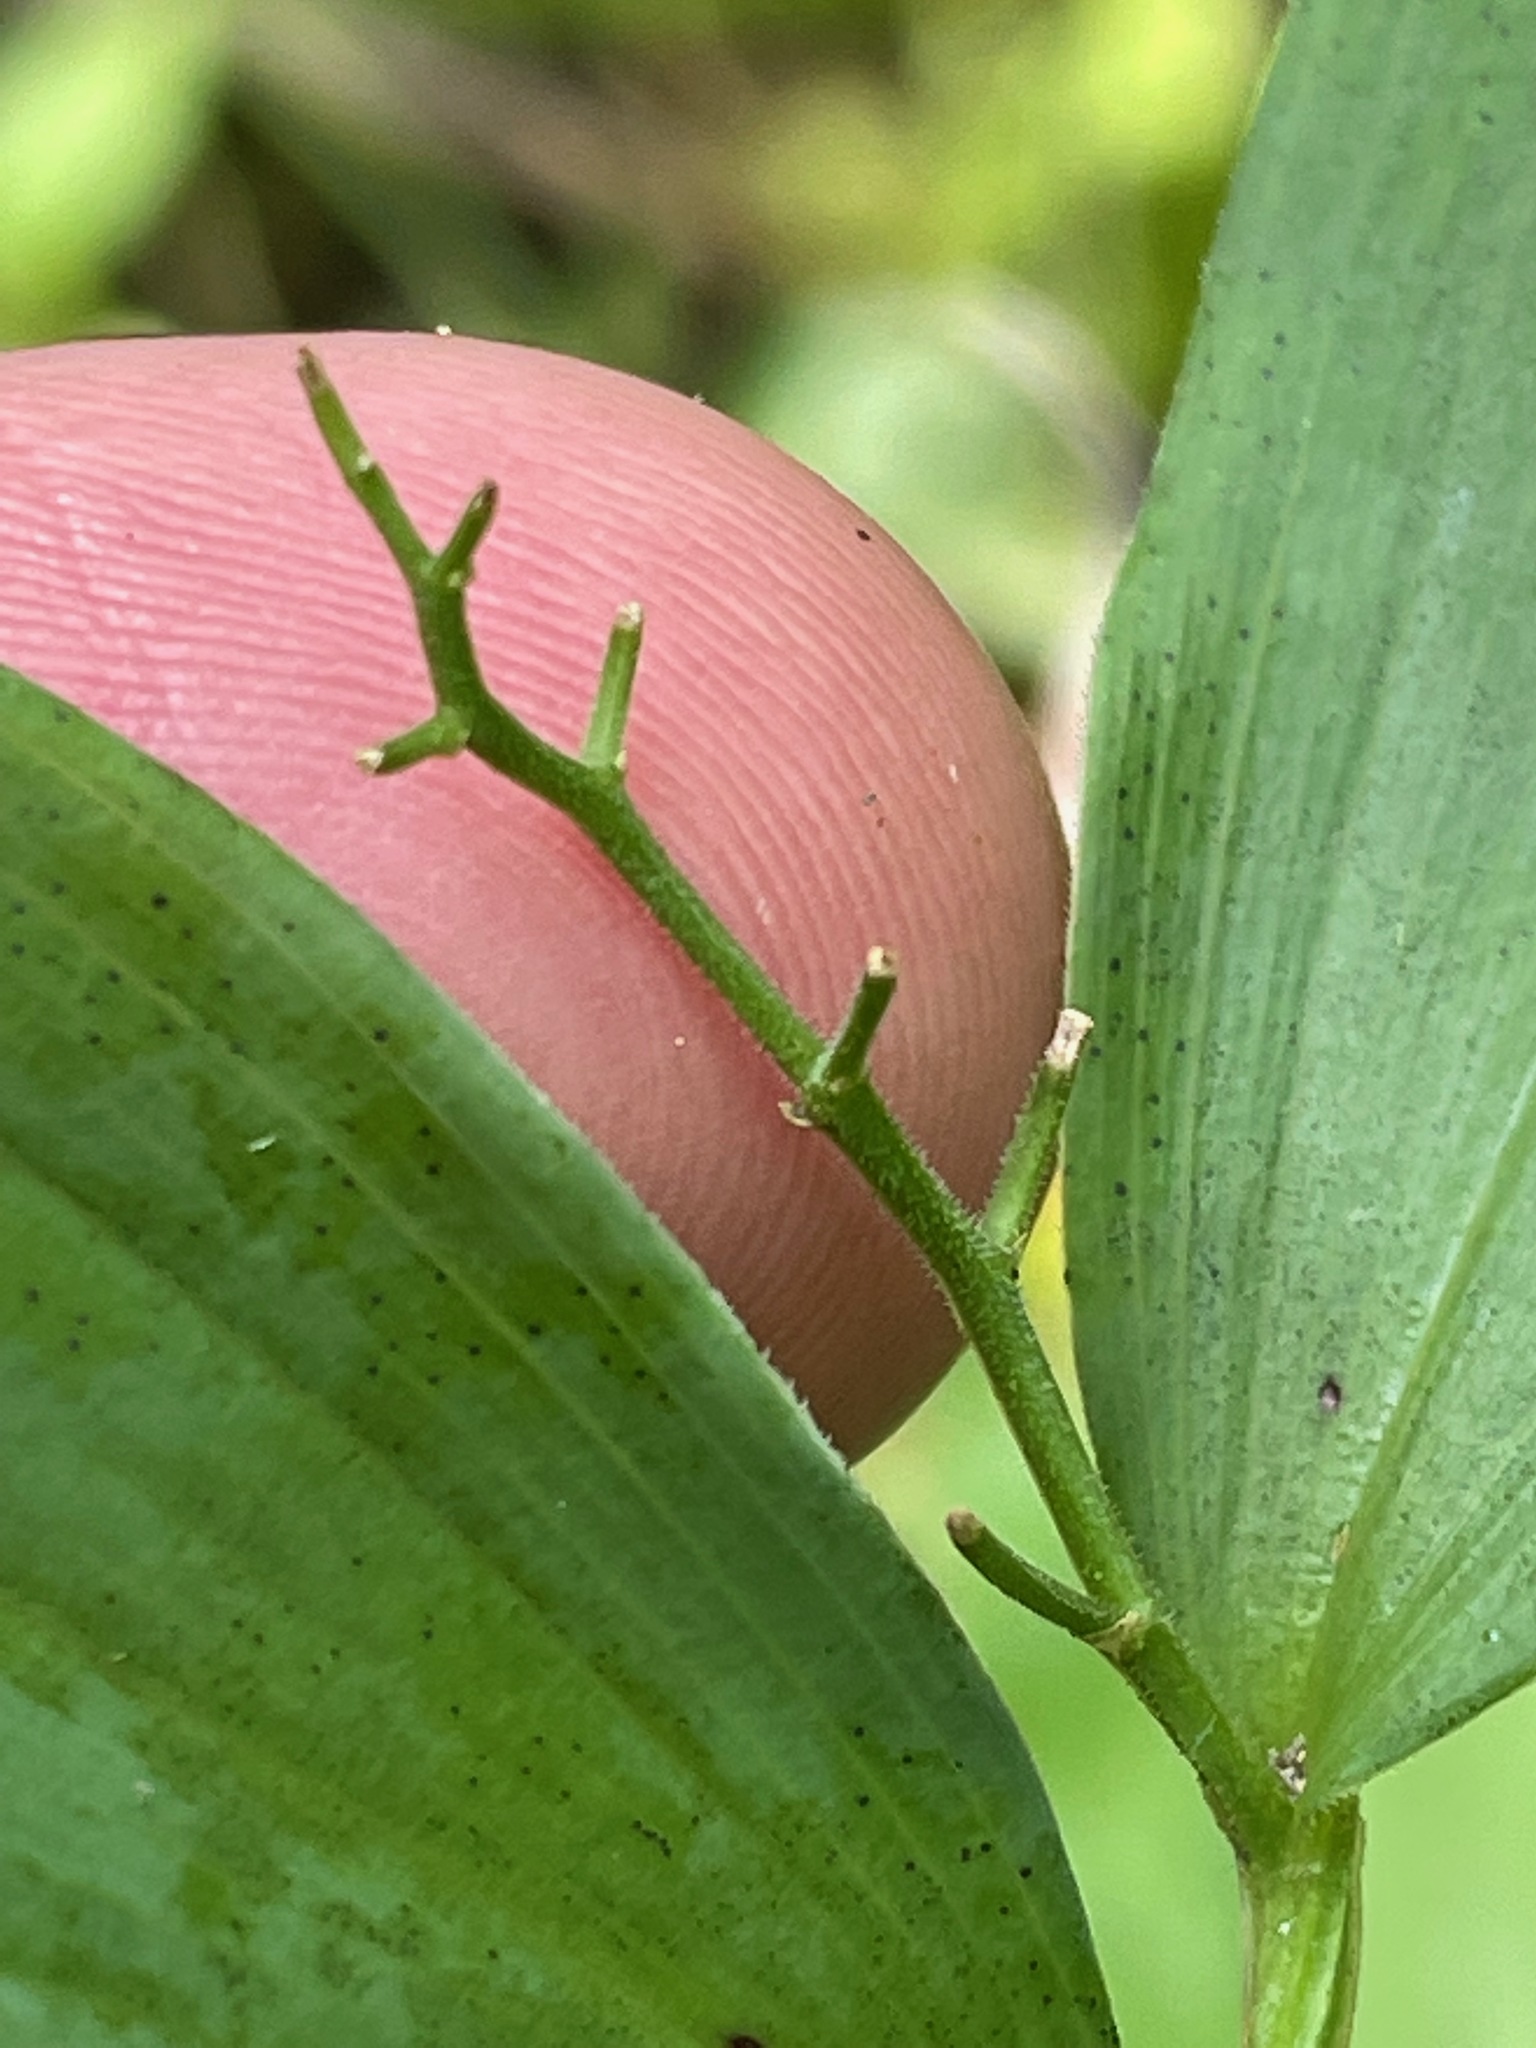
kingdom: Plantae
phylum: Tracheophyta
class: Liliopsida
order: Asparagales
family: Asparagaceae
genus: Maianthemum
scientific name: Maianthemum stellatum
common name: Little false solomon's seal
